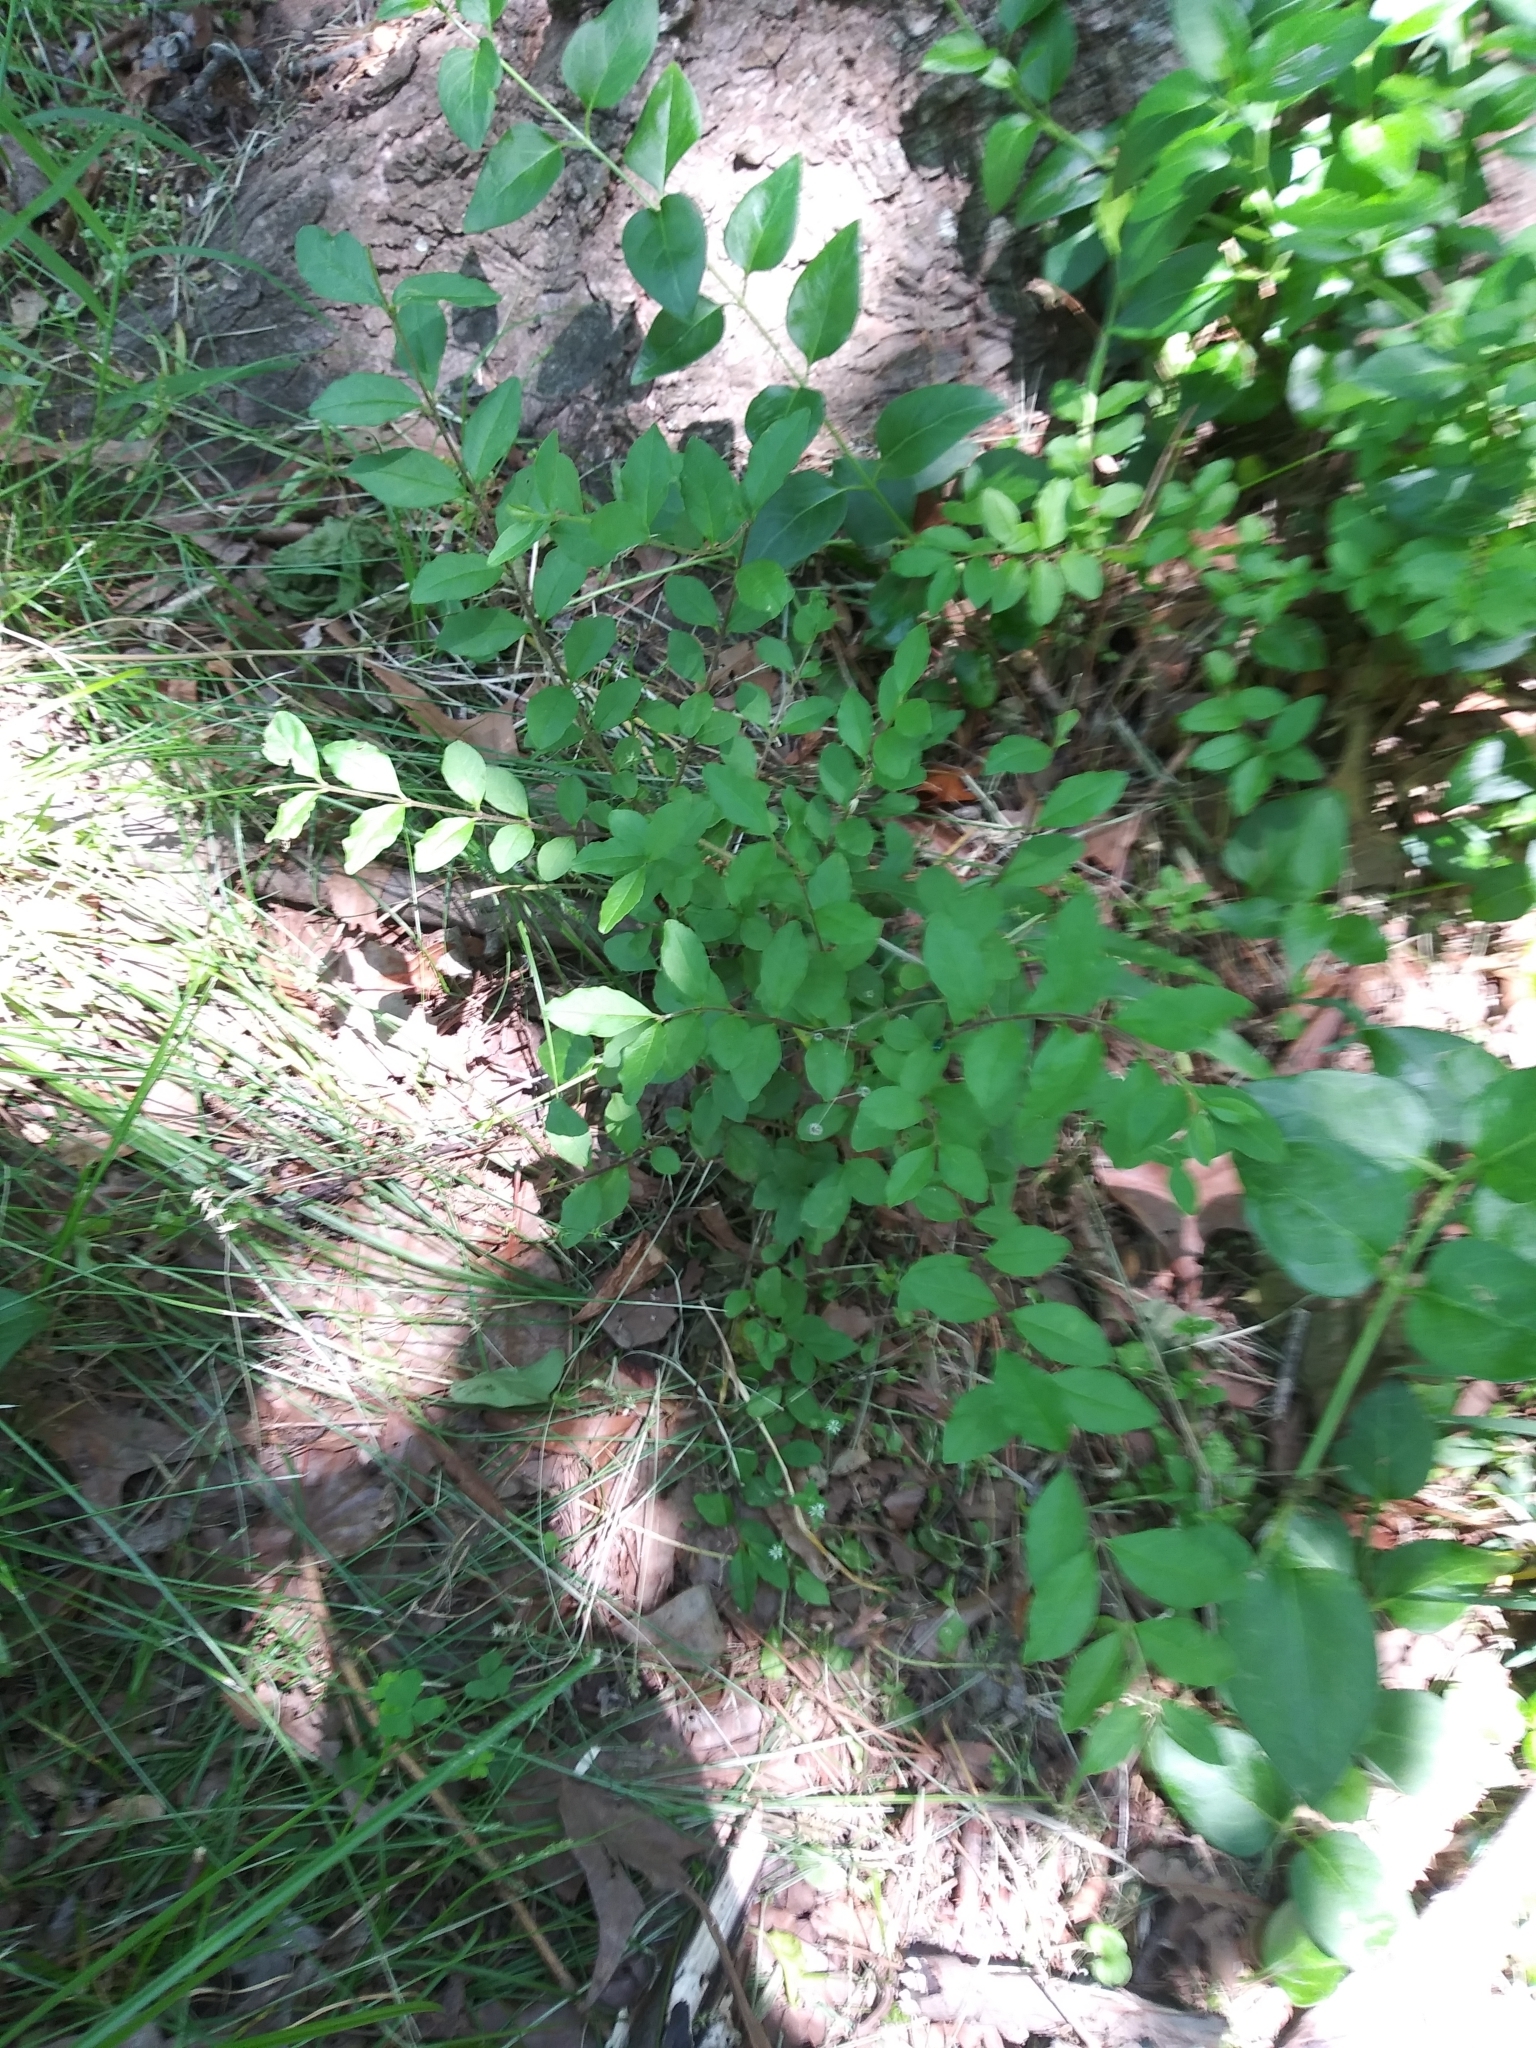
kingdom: Plantae
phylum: Tracheophyta
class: Magnoliopsida
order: Lamiales
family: Oleaceae
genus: Ligustrum
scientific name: Ligustrum sinense
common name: Chinese privet
